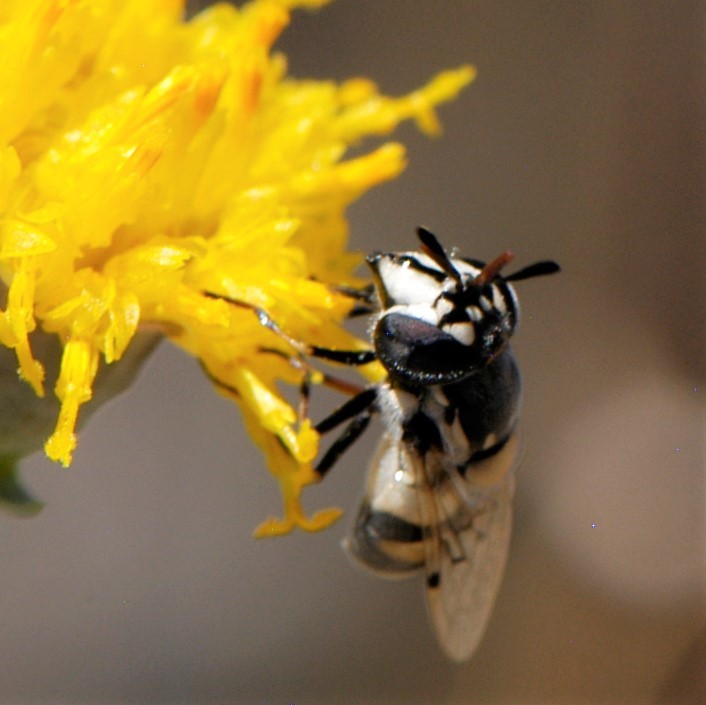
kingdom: Animalia
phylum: Arthropoda
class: Insecta
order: Diptera
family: Syrphidae
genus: Copestylum
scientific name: Copestylum caudatum
